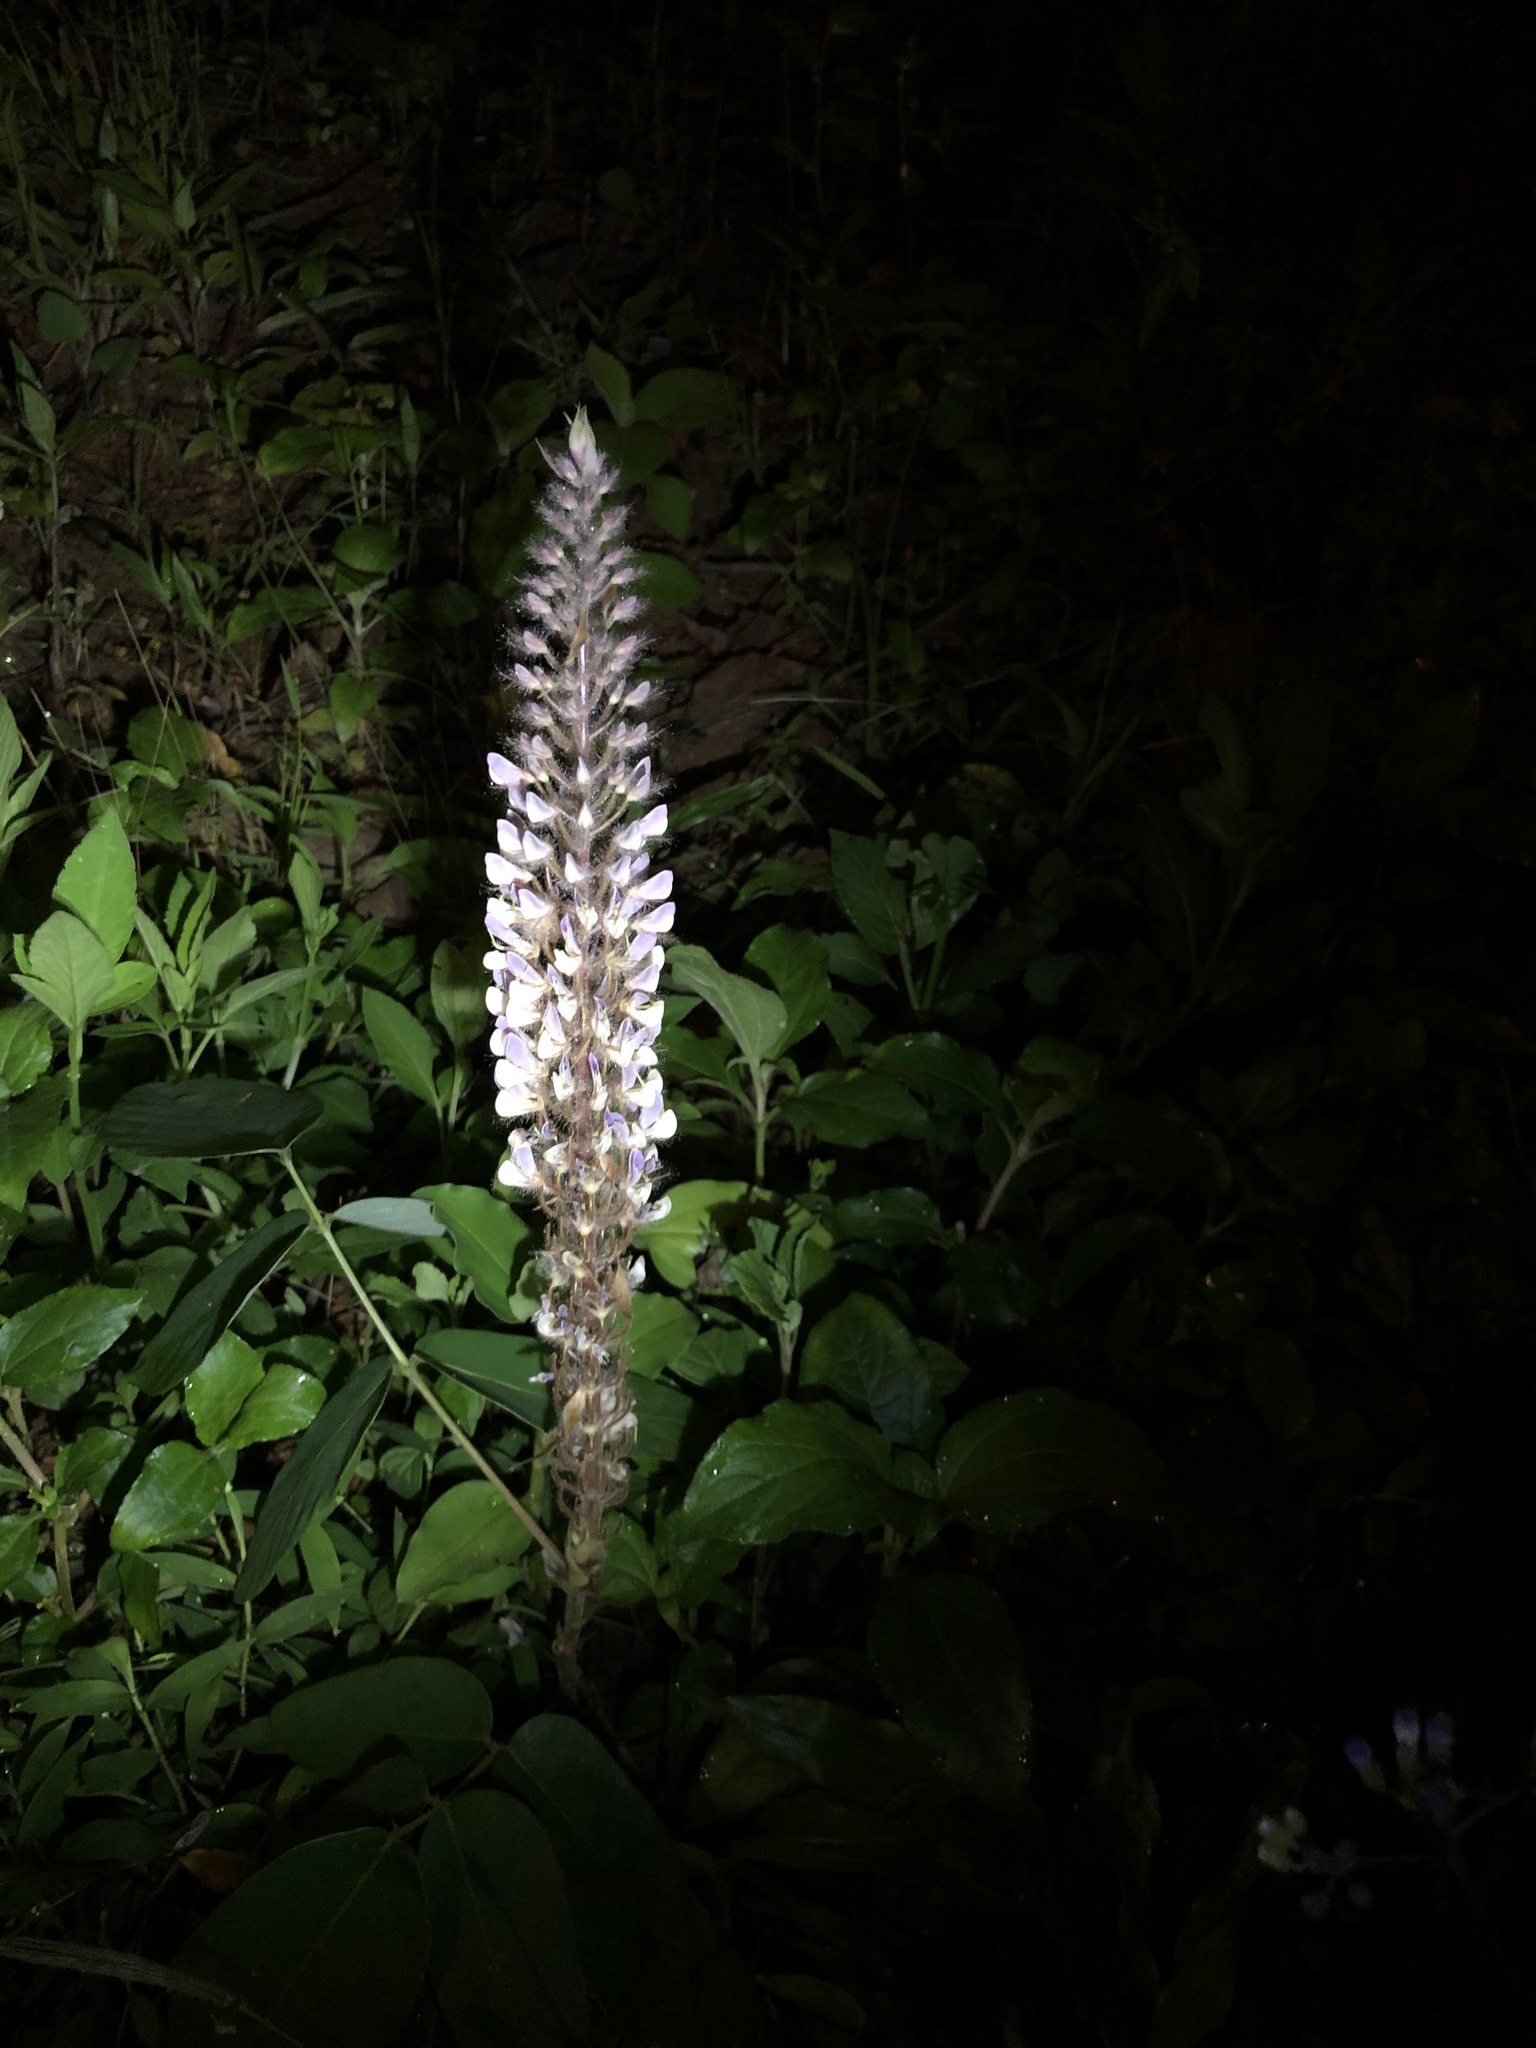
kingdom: Plantae
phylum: Tracheophyta
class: Magnoliopsida
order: Fabales
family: Fabaceae
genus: Uraria
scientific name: Uraria crinita
